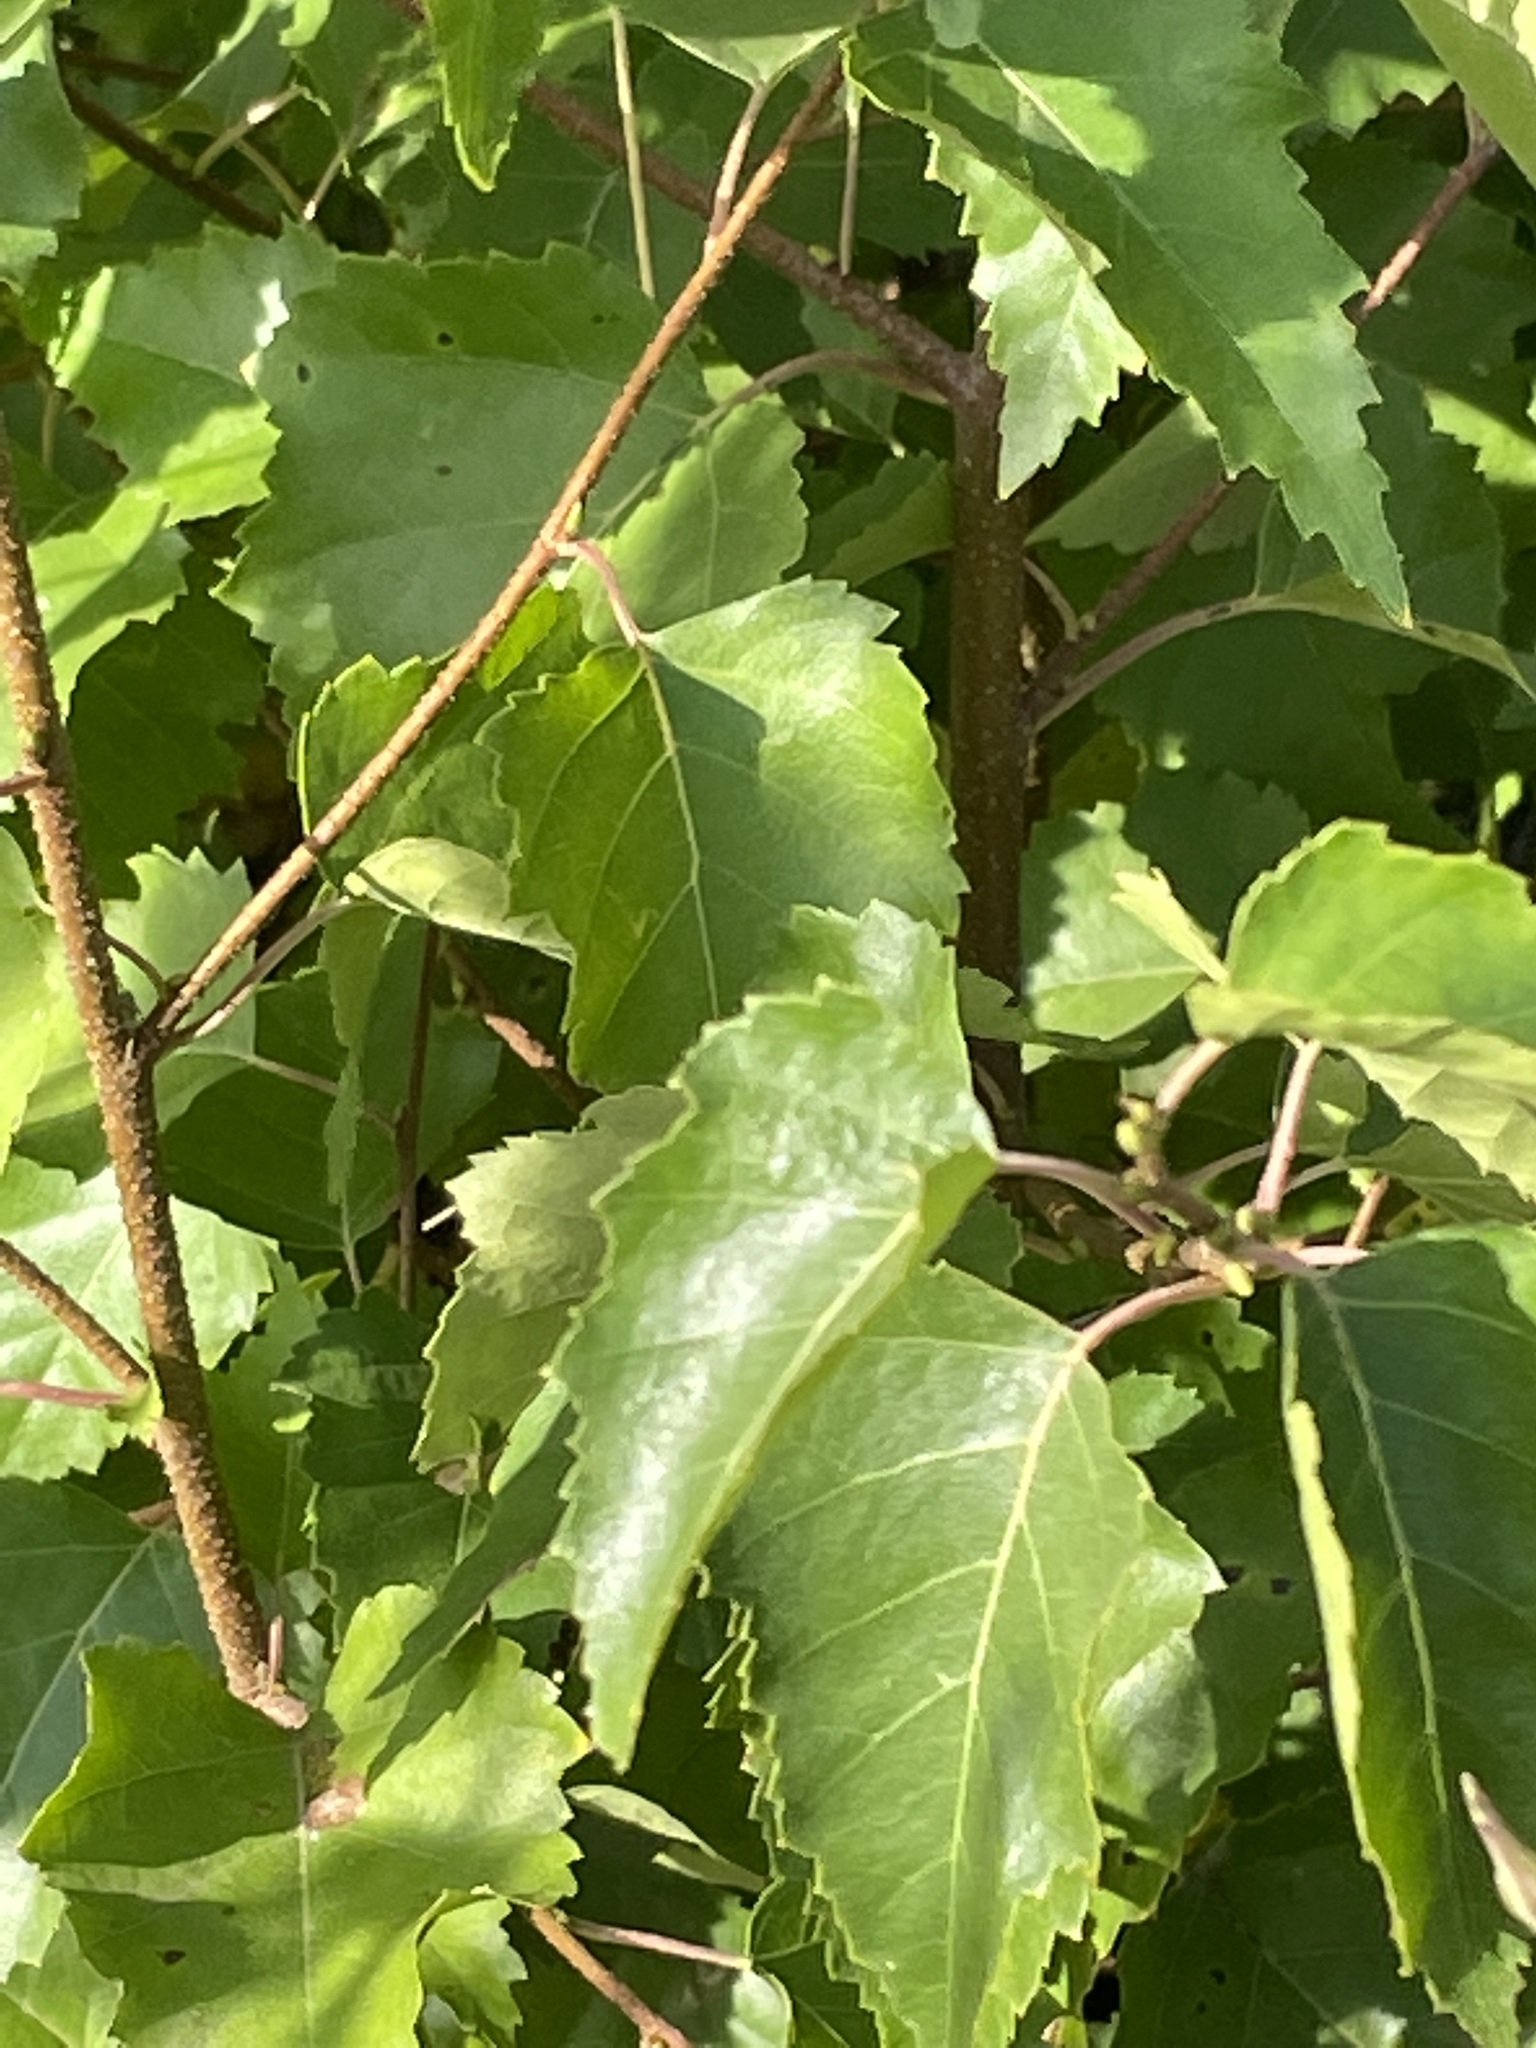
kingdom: Plantae
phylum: Tracheophyta
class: Magnoliopsida
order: Fagales
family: Betulaceae
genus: Betula
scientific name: Betula pendula
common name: Silver birch
